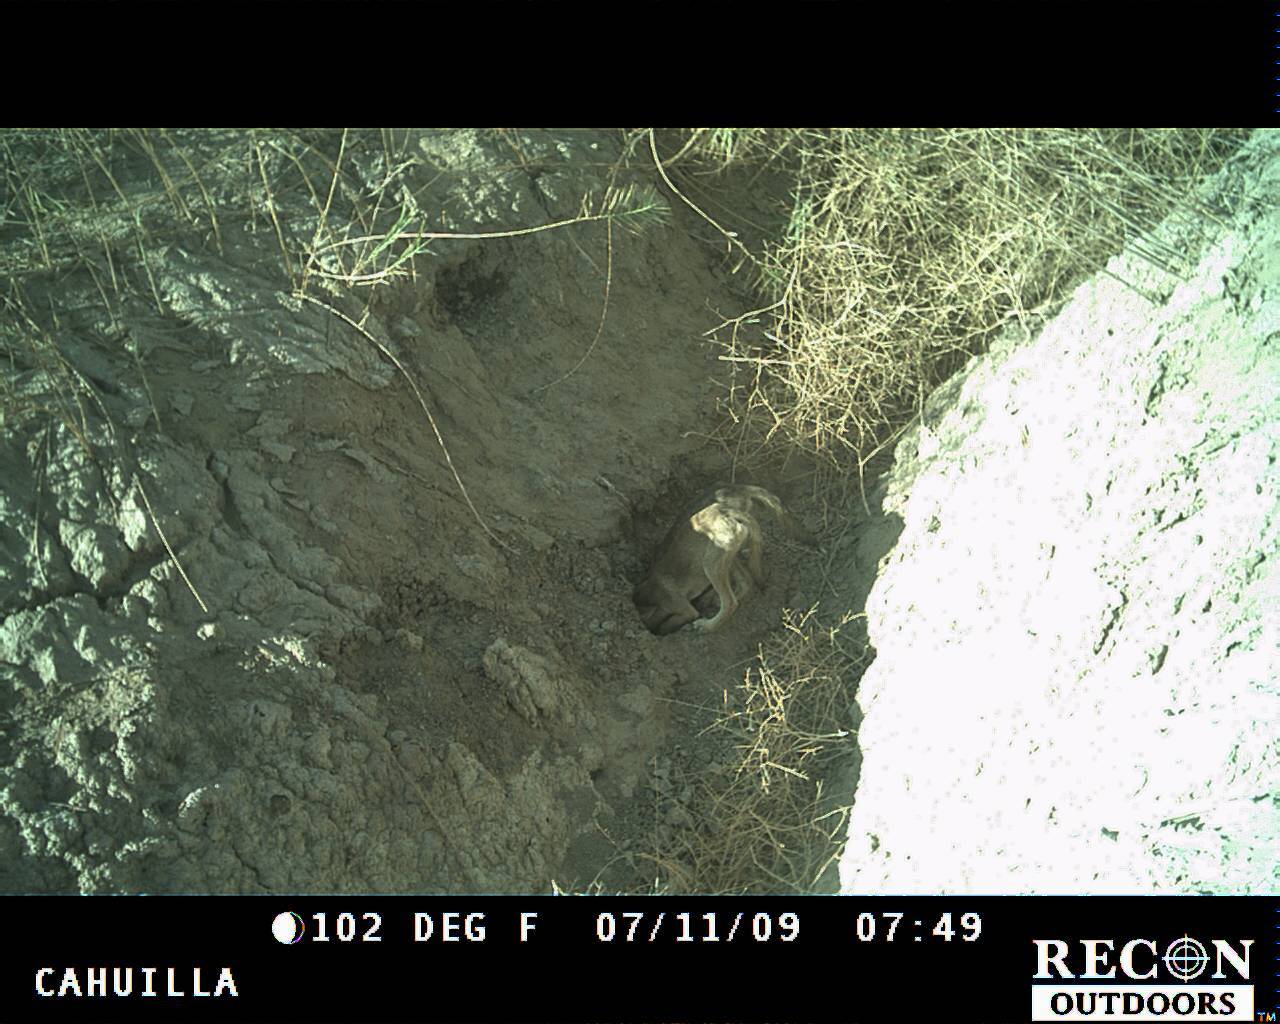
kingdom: Animalia
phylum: Chordata
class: Mammalia
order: Carnivora
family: Canidae
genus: Canis
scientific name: Canis latrans
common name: Coyote
